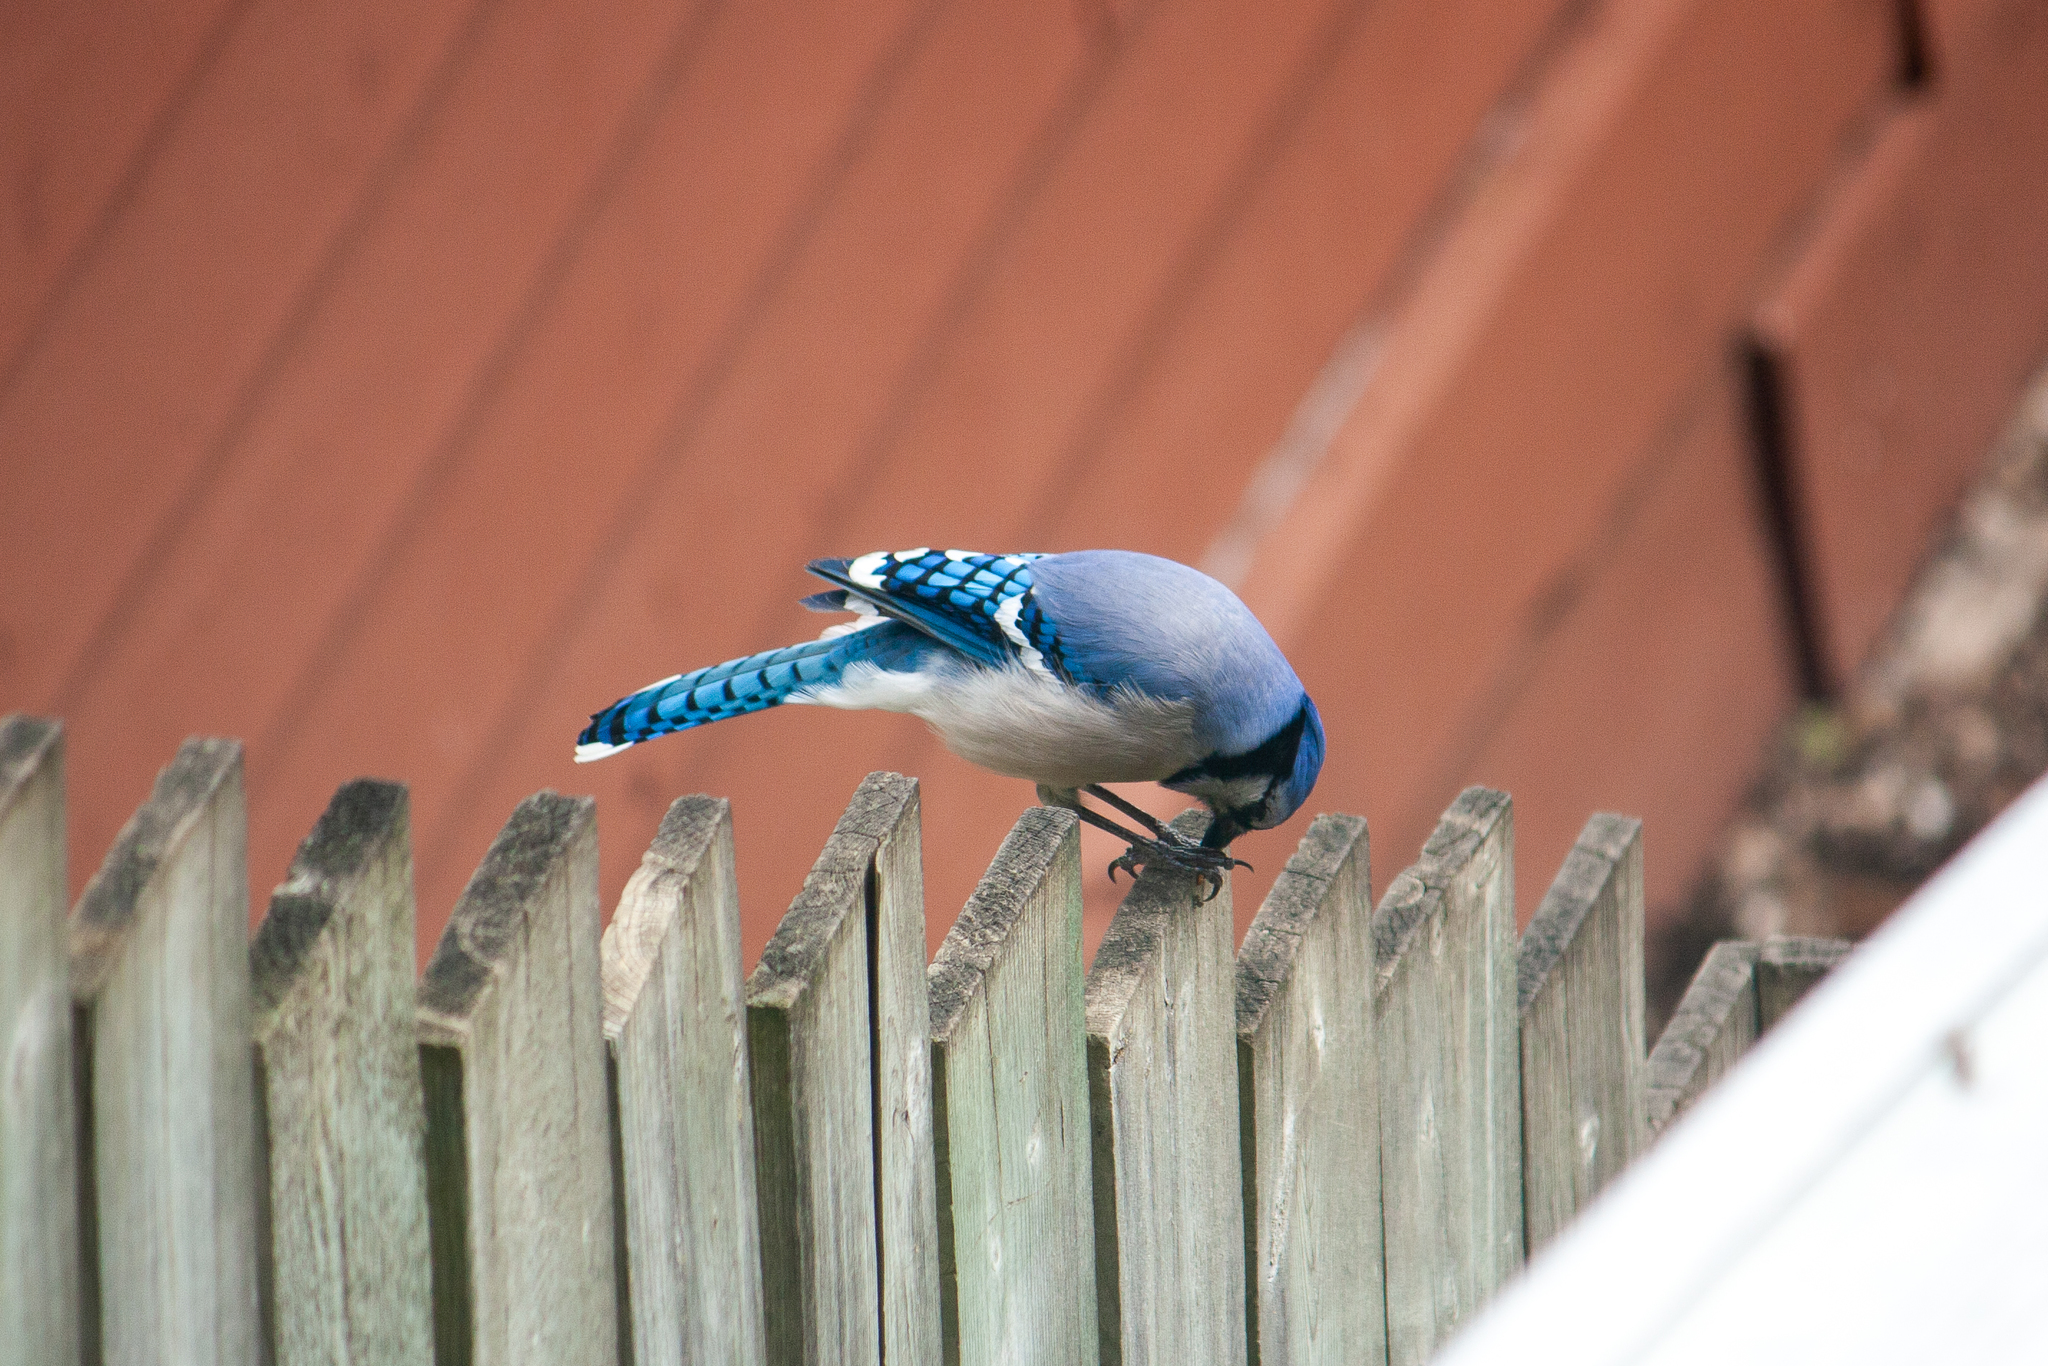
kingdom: Animalia
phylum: Chordata
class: Aves
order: Passeriformes
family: Corvidae
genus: Cyanocitta
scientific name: Cyanocitta cristata
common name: Blue jay
